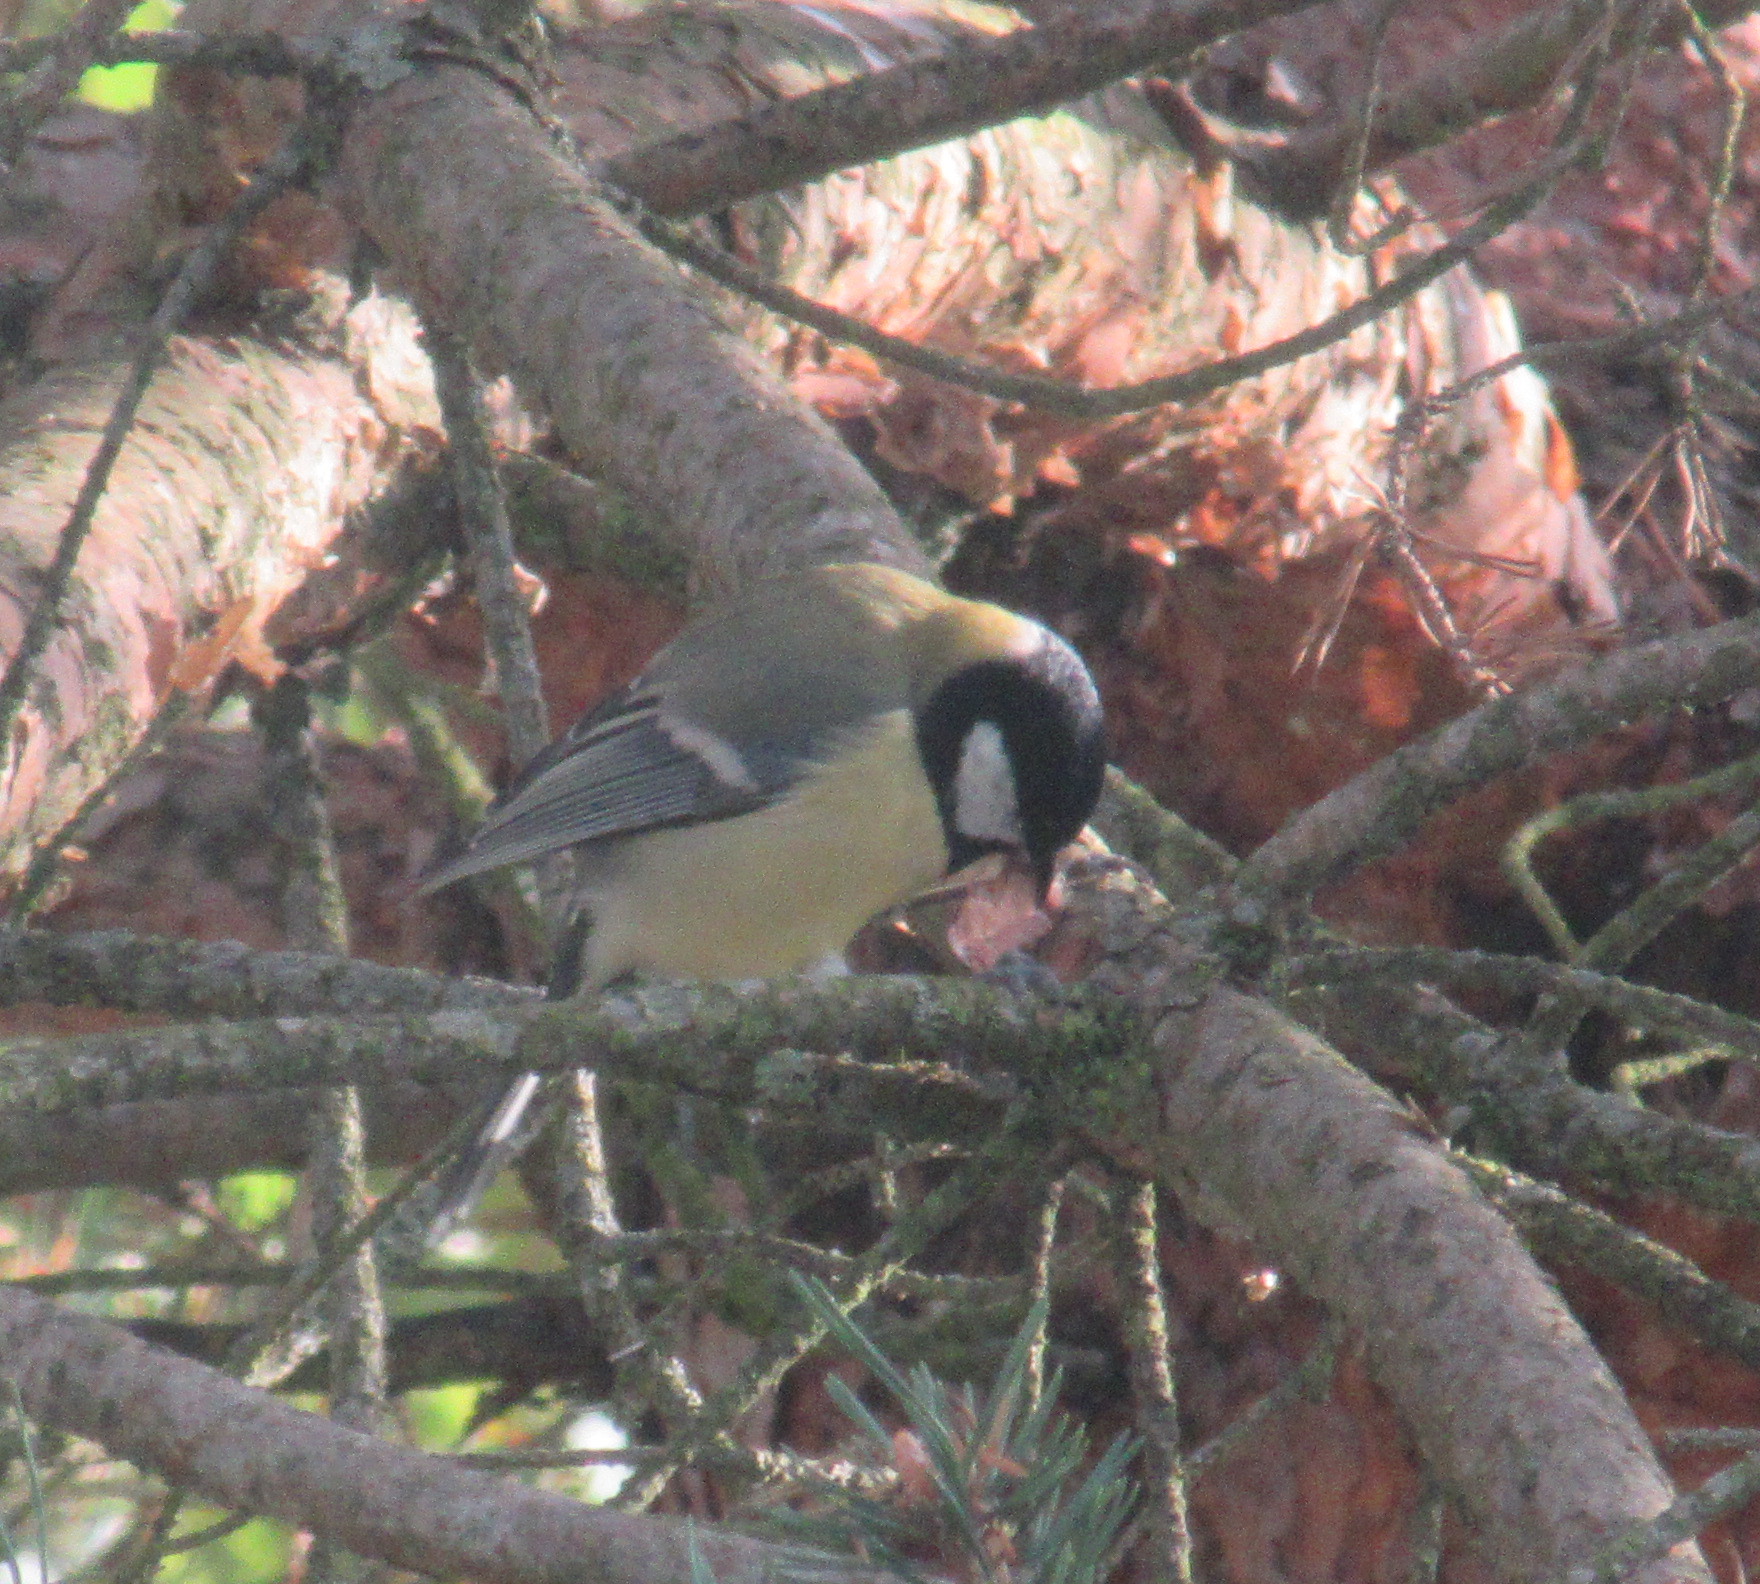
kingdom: Animalia
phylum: Chordata
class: Aves
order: Passeriformes
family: Paridae
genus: Parus
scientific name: Parus major
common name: Great tit
